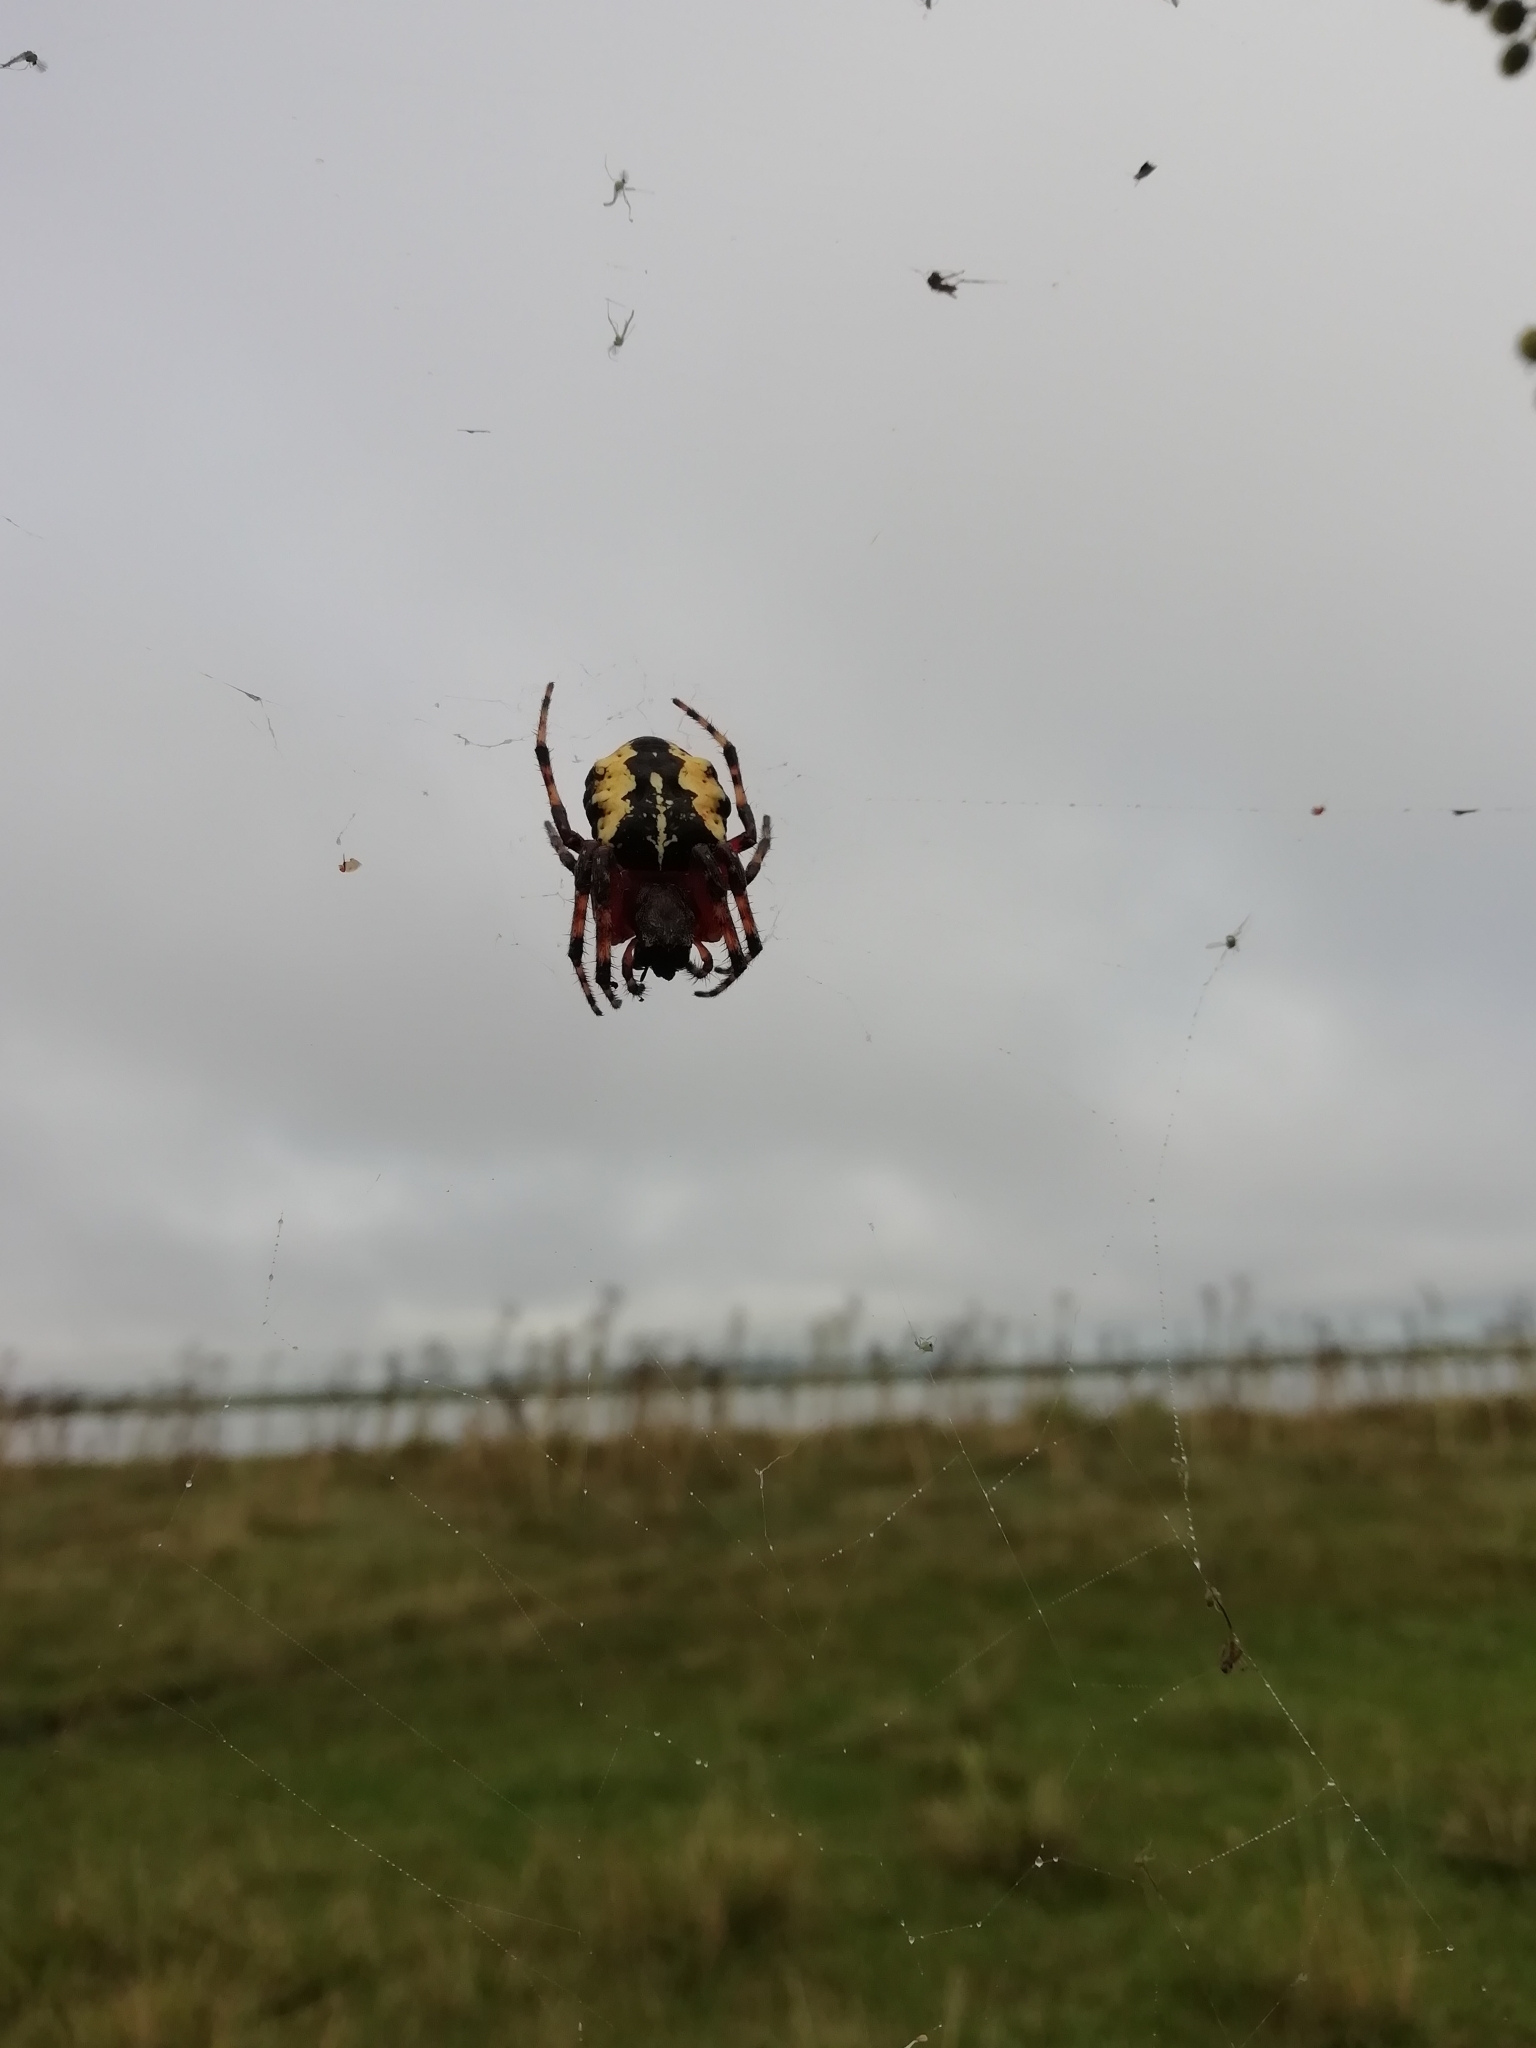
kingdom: Animalia
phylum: Arthropoda
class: Arachnida
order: Araneae
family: Araneidae
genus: Parawixia
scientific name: Parawixia undulata
